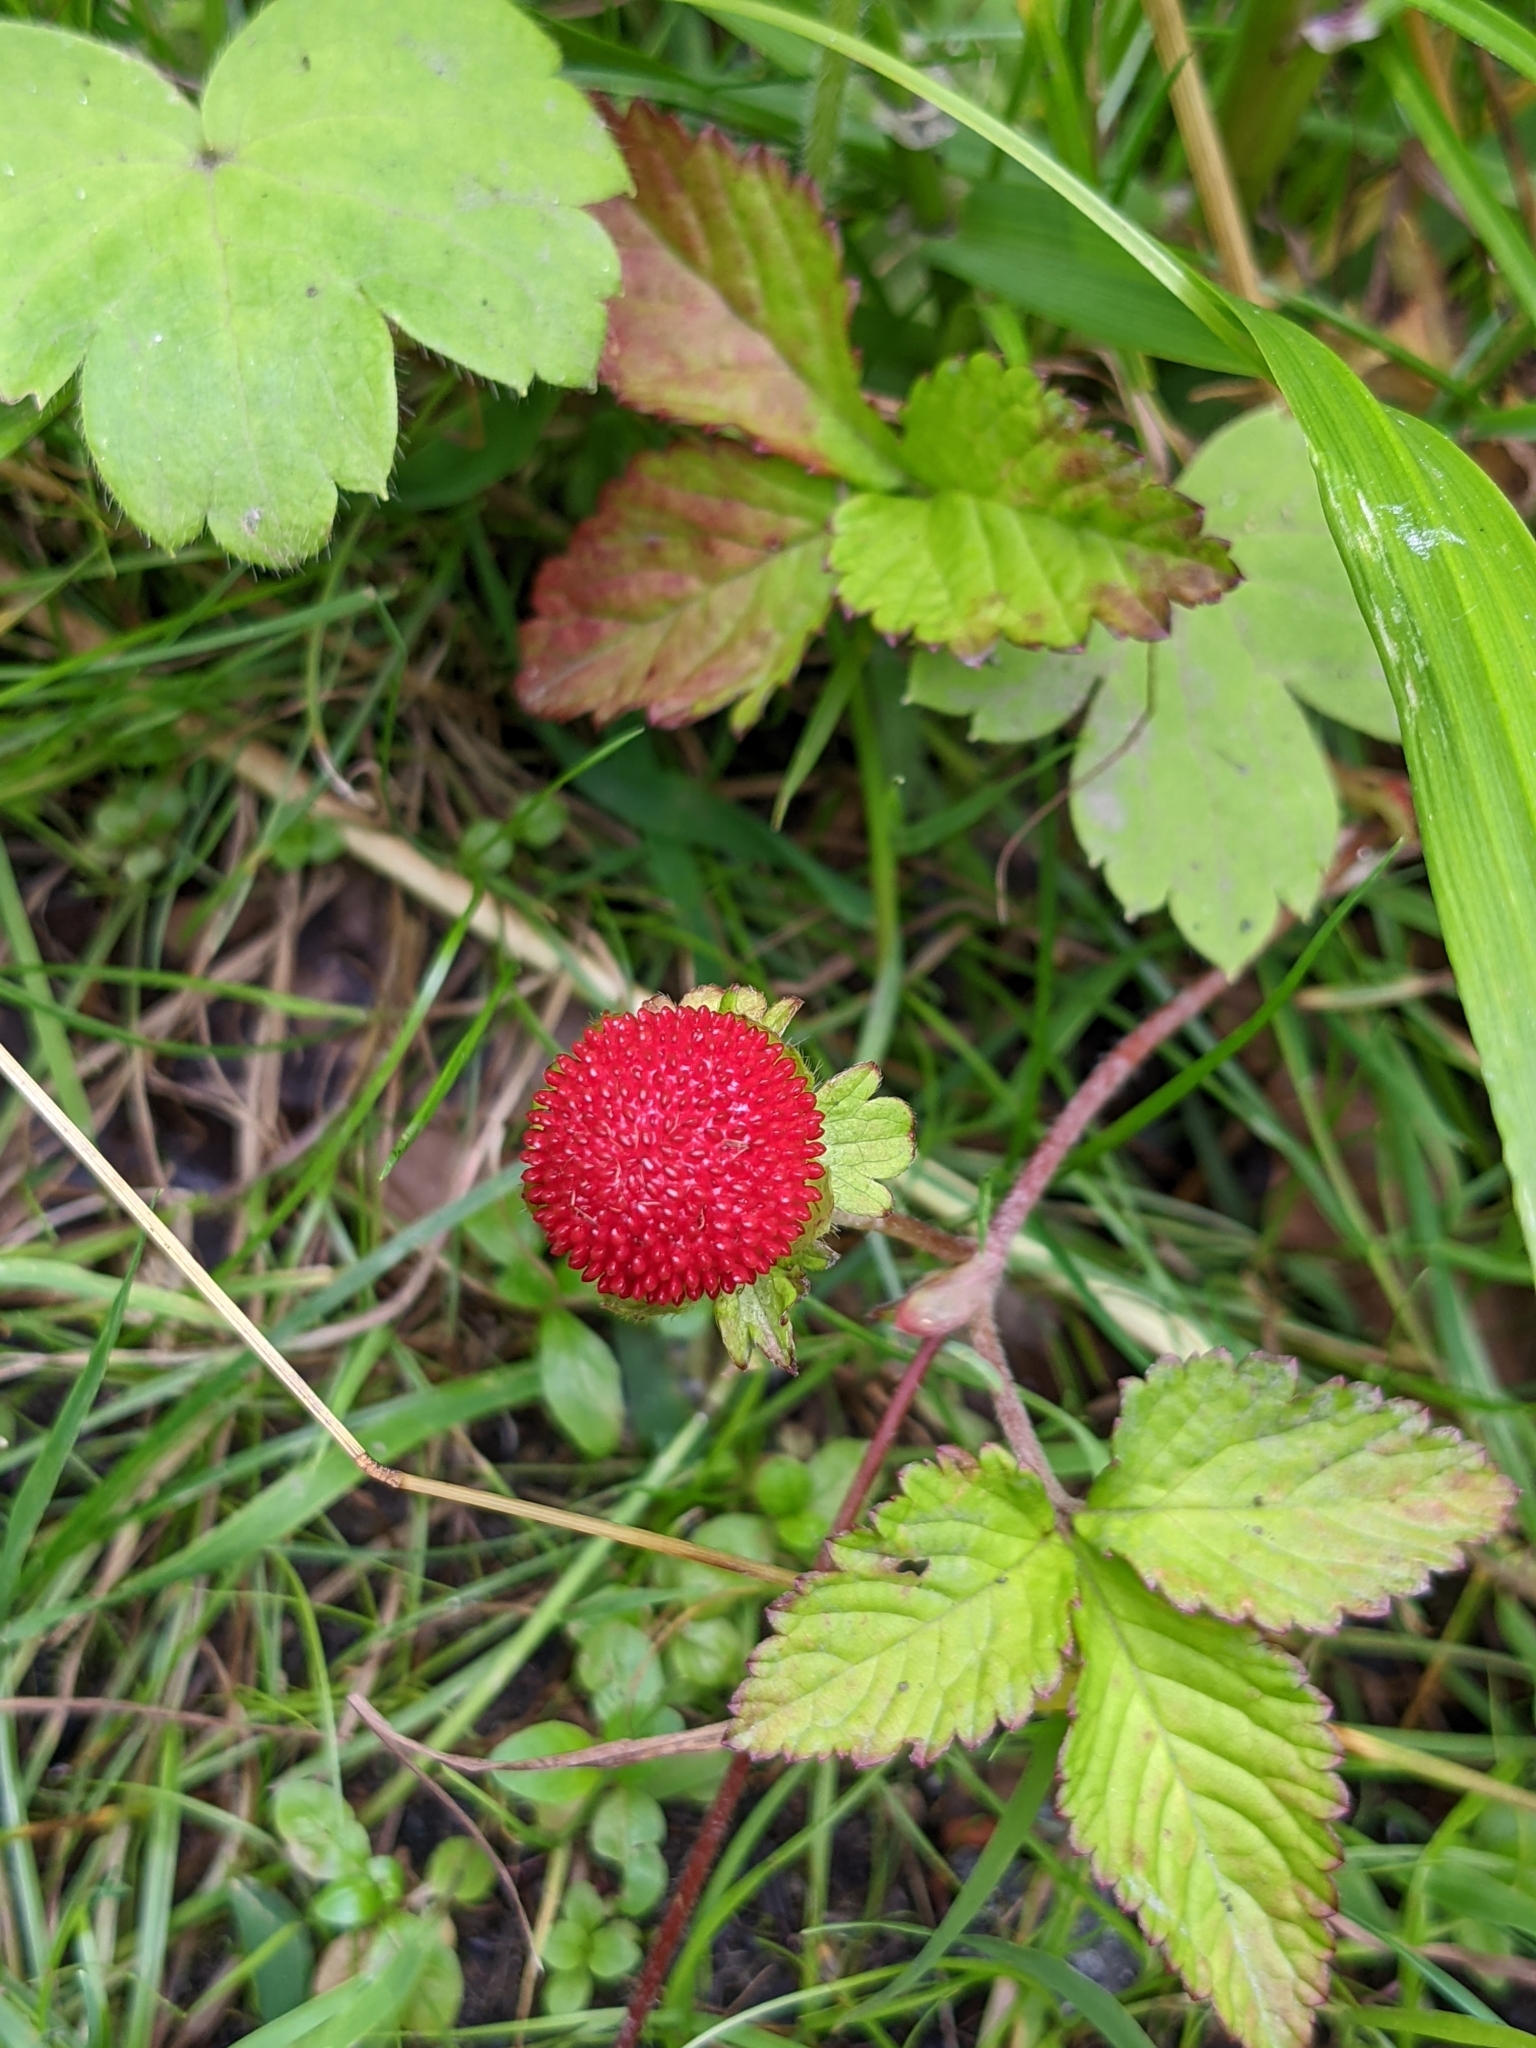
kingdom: Plantae
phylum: Tracheophyta
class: Magnoliopsida
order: Rosales
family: Rosaceae
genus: Potentilla
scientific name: Potentilla indica
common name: Yellow-flowered strawberry
